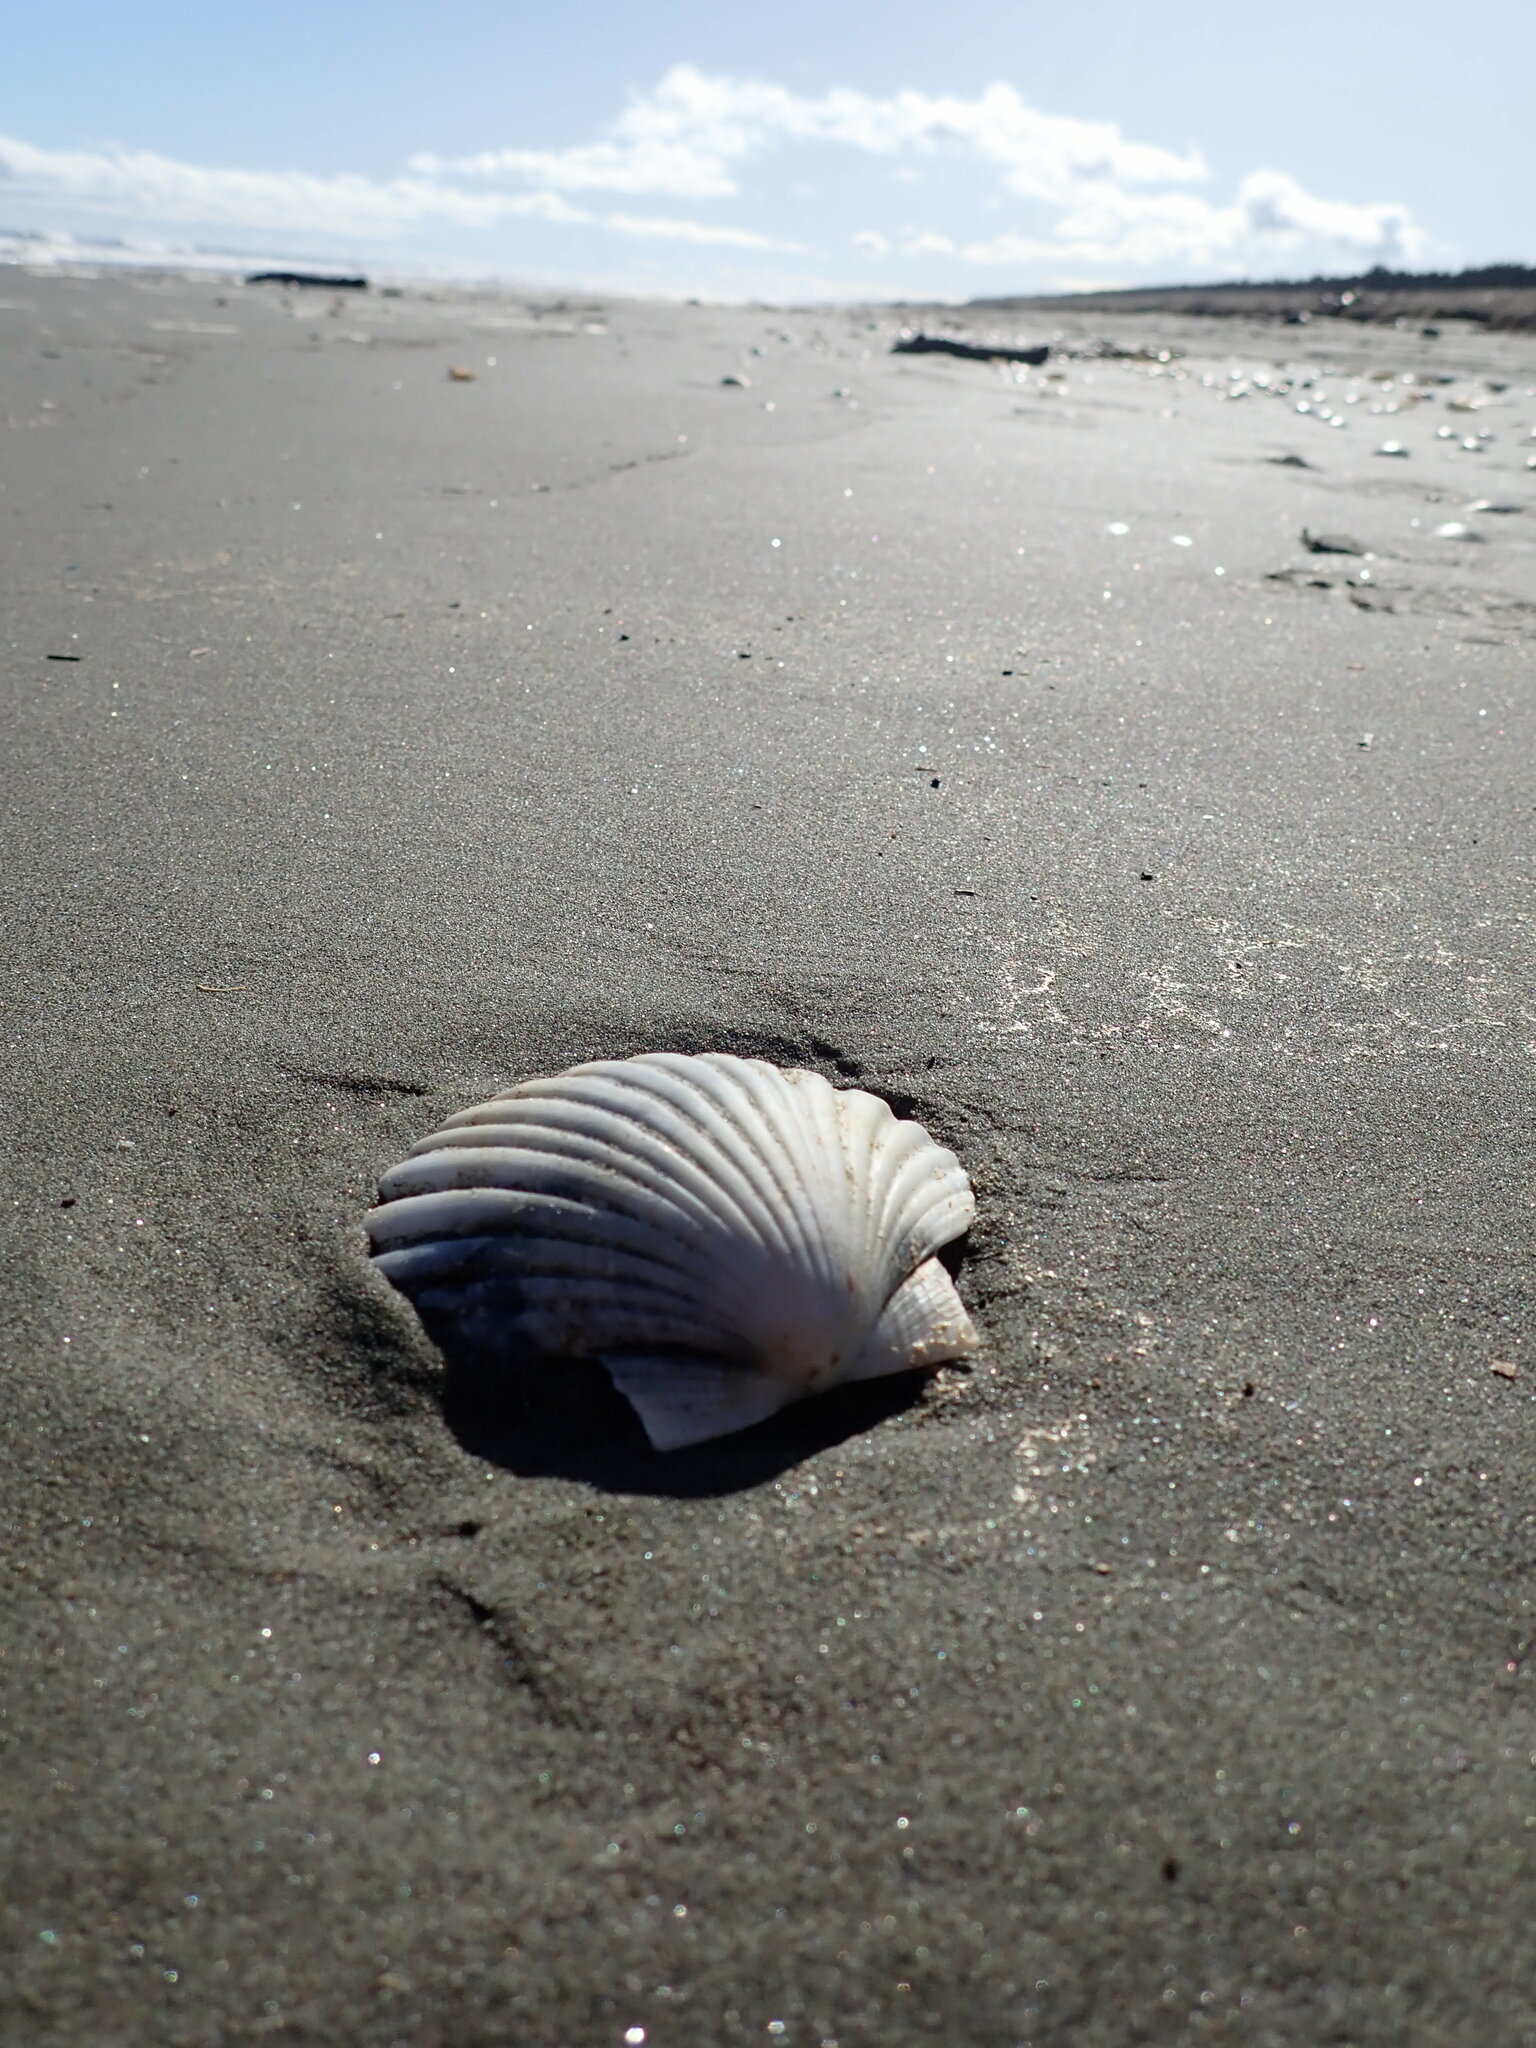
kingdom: Animalia
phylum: Mollusca
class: Bivalvia
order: Pectinida
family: Pectinidae
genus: Pecten
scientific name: Pecten novaezelandiae
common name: New zealand scallop
